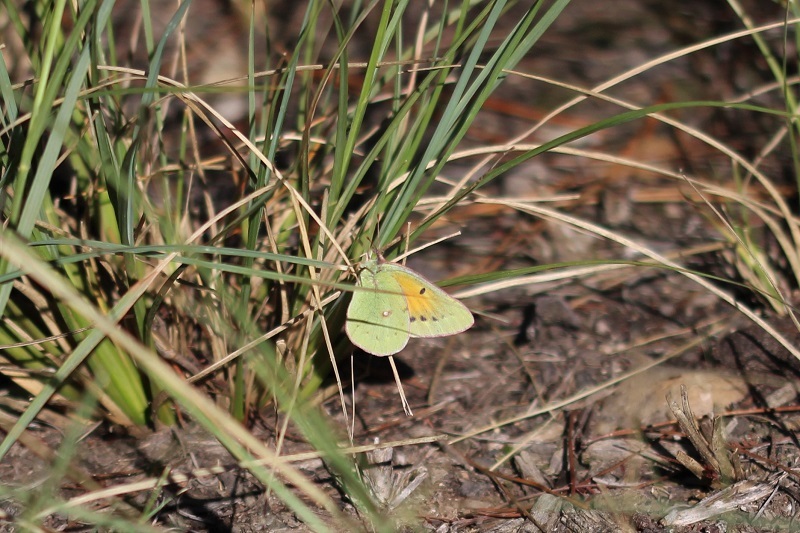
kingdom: Animalia
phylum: Arthropoda
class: Insecta
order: Lepidoptera
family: Pieridae
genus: Colias
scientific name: Colias electo
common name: African clouded yellow
